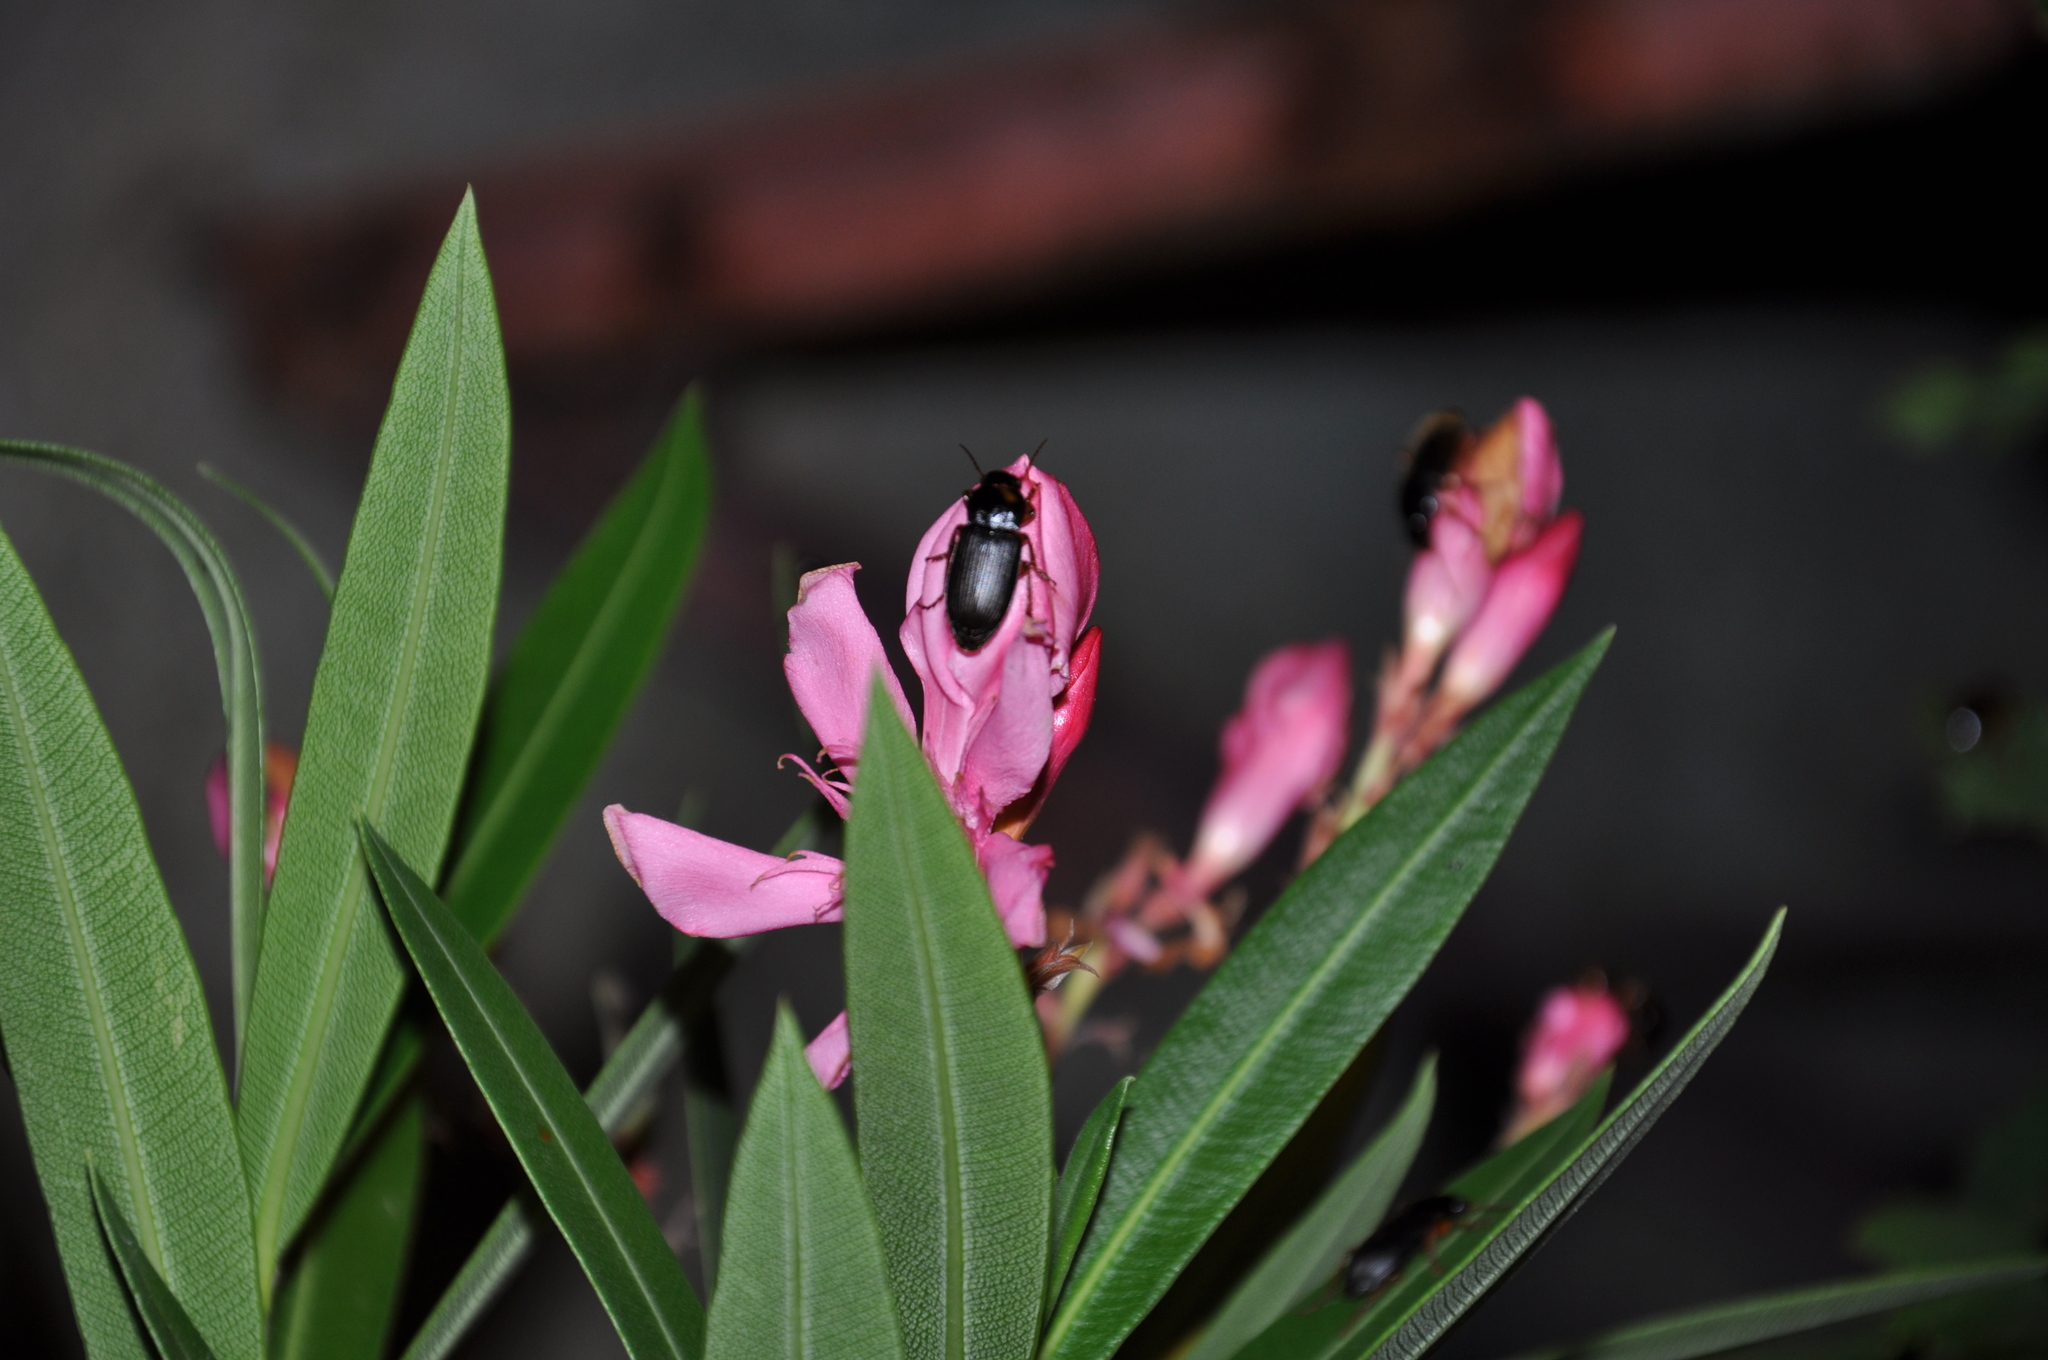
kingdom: Animalia
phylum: Arthropoda
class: Insecta
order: Coleoptera
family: Carabidae
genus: Harpalus
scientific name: Harpalus rufipes
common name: Strawberry harp ground beetle
